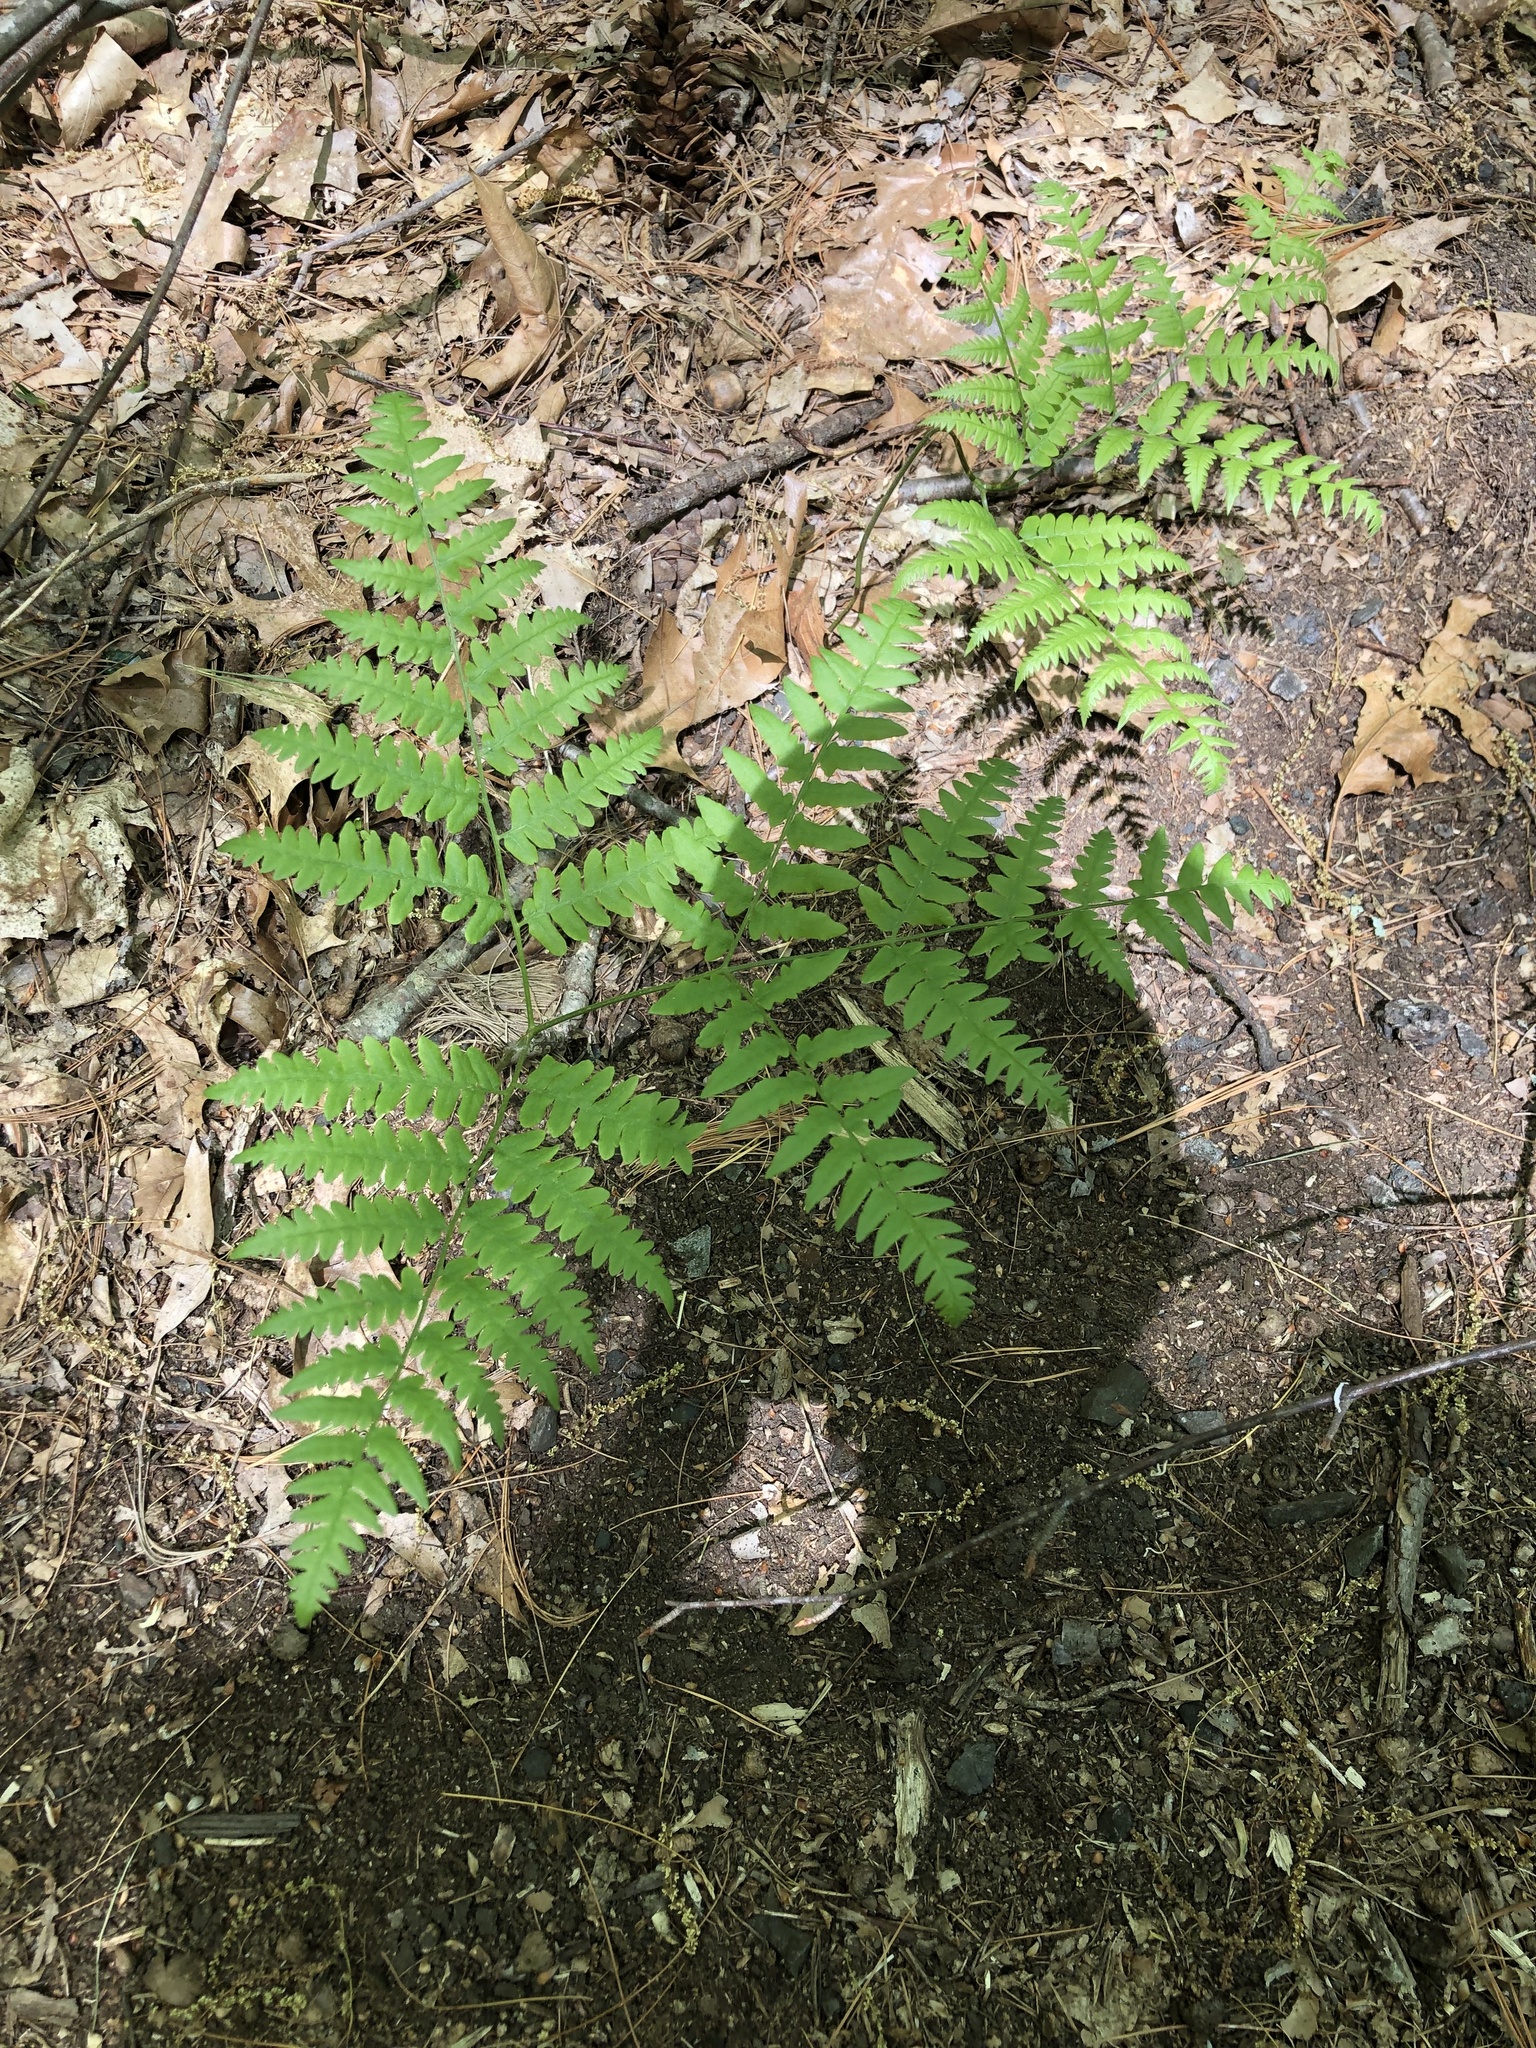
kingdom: Plantae
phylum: Tracheophyta
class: Polypodiopsida
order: Polypodiales
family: Dennstaedtiaceae
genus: Pteridium
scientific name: Pteridium aquilinum
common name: Bracken
